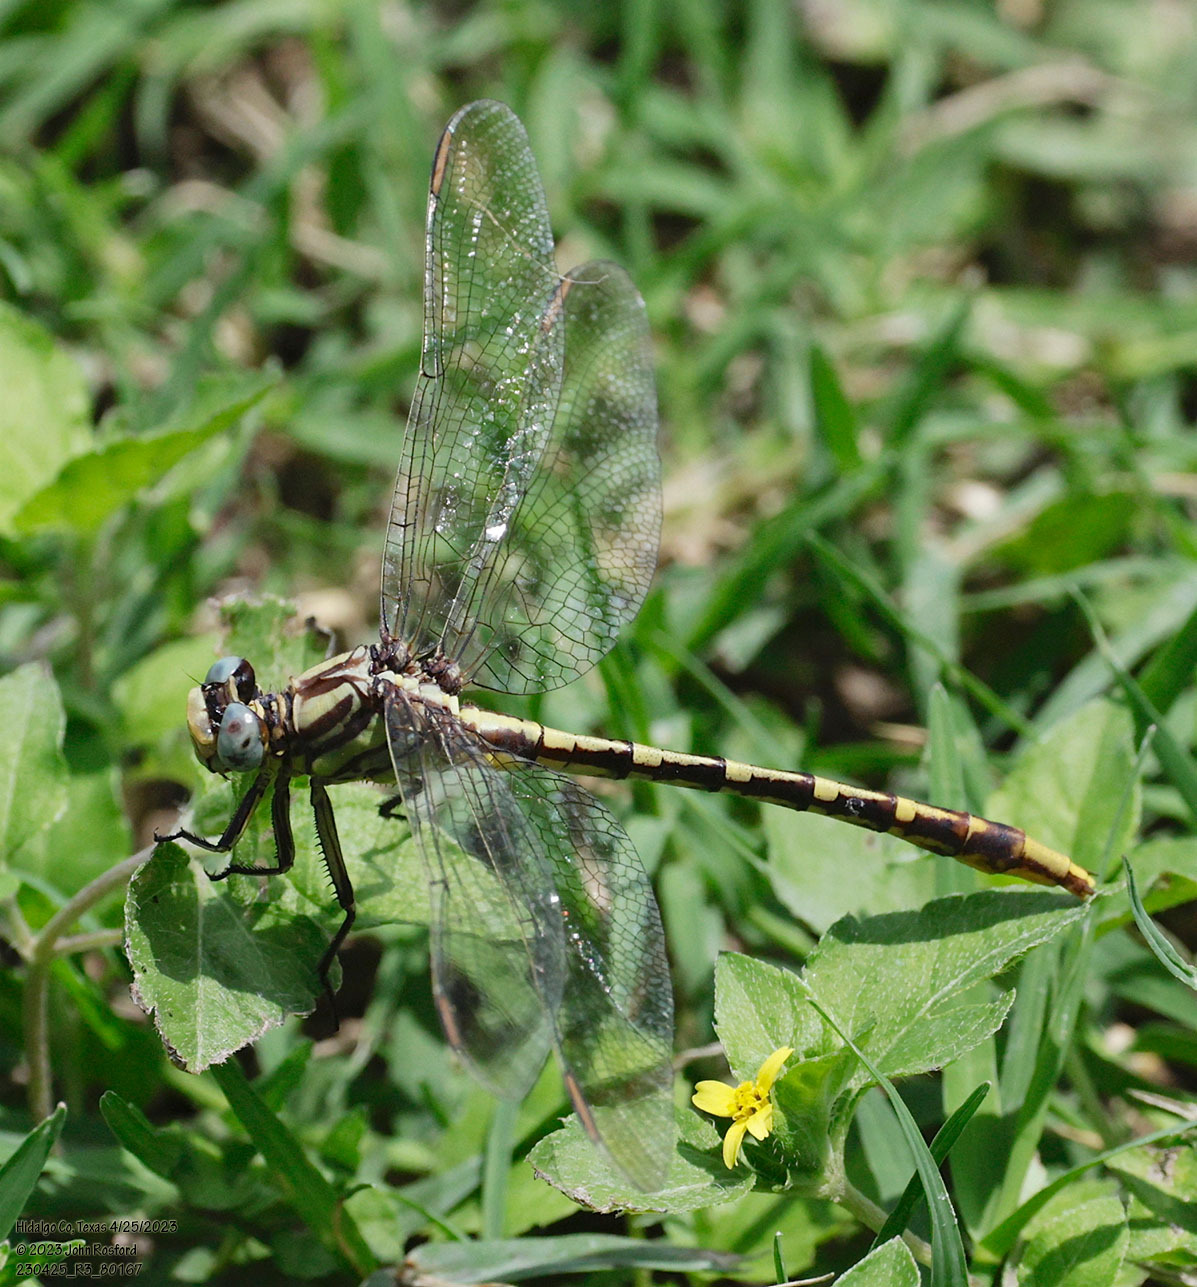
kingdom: Animalia
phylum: Arthropoda
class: Insecta
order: Odonata
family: Gomphidae
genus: Phanogomphus
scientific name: Phanogomphus militaris
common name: Sulphur-tipped clubtail
